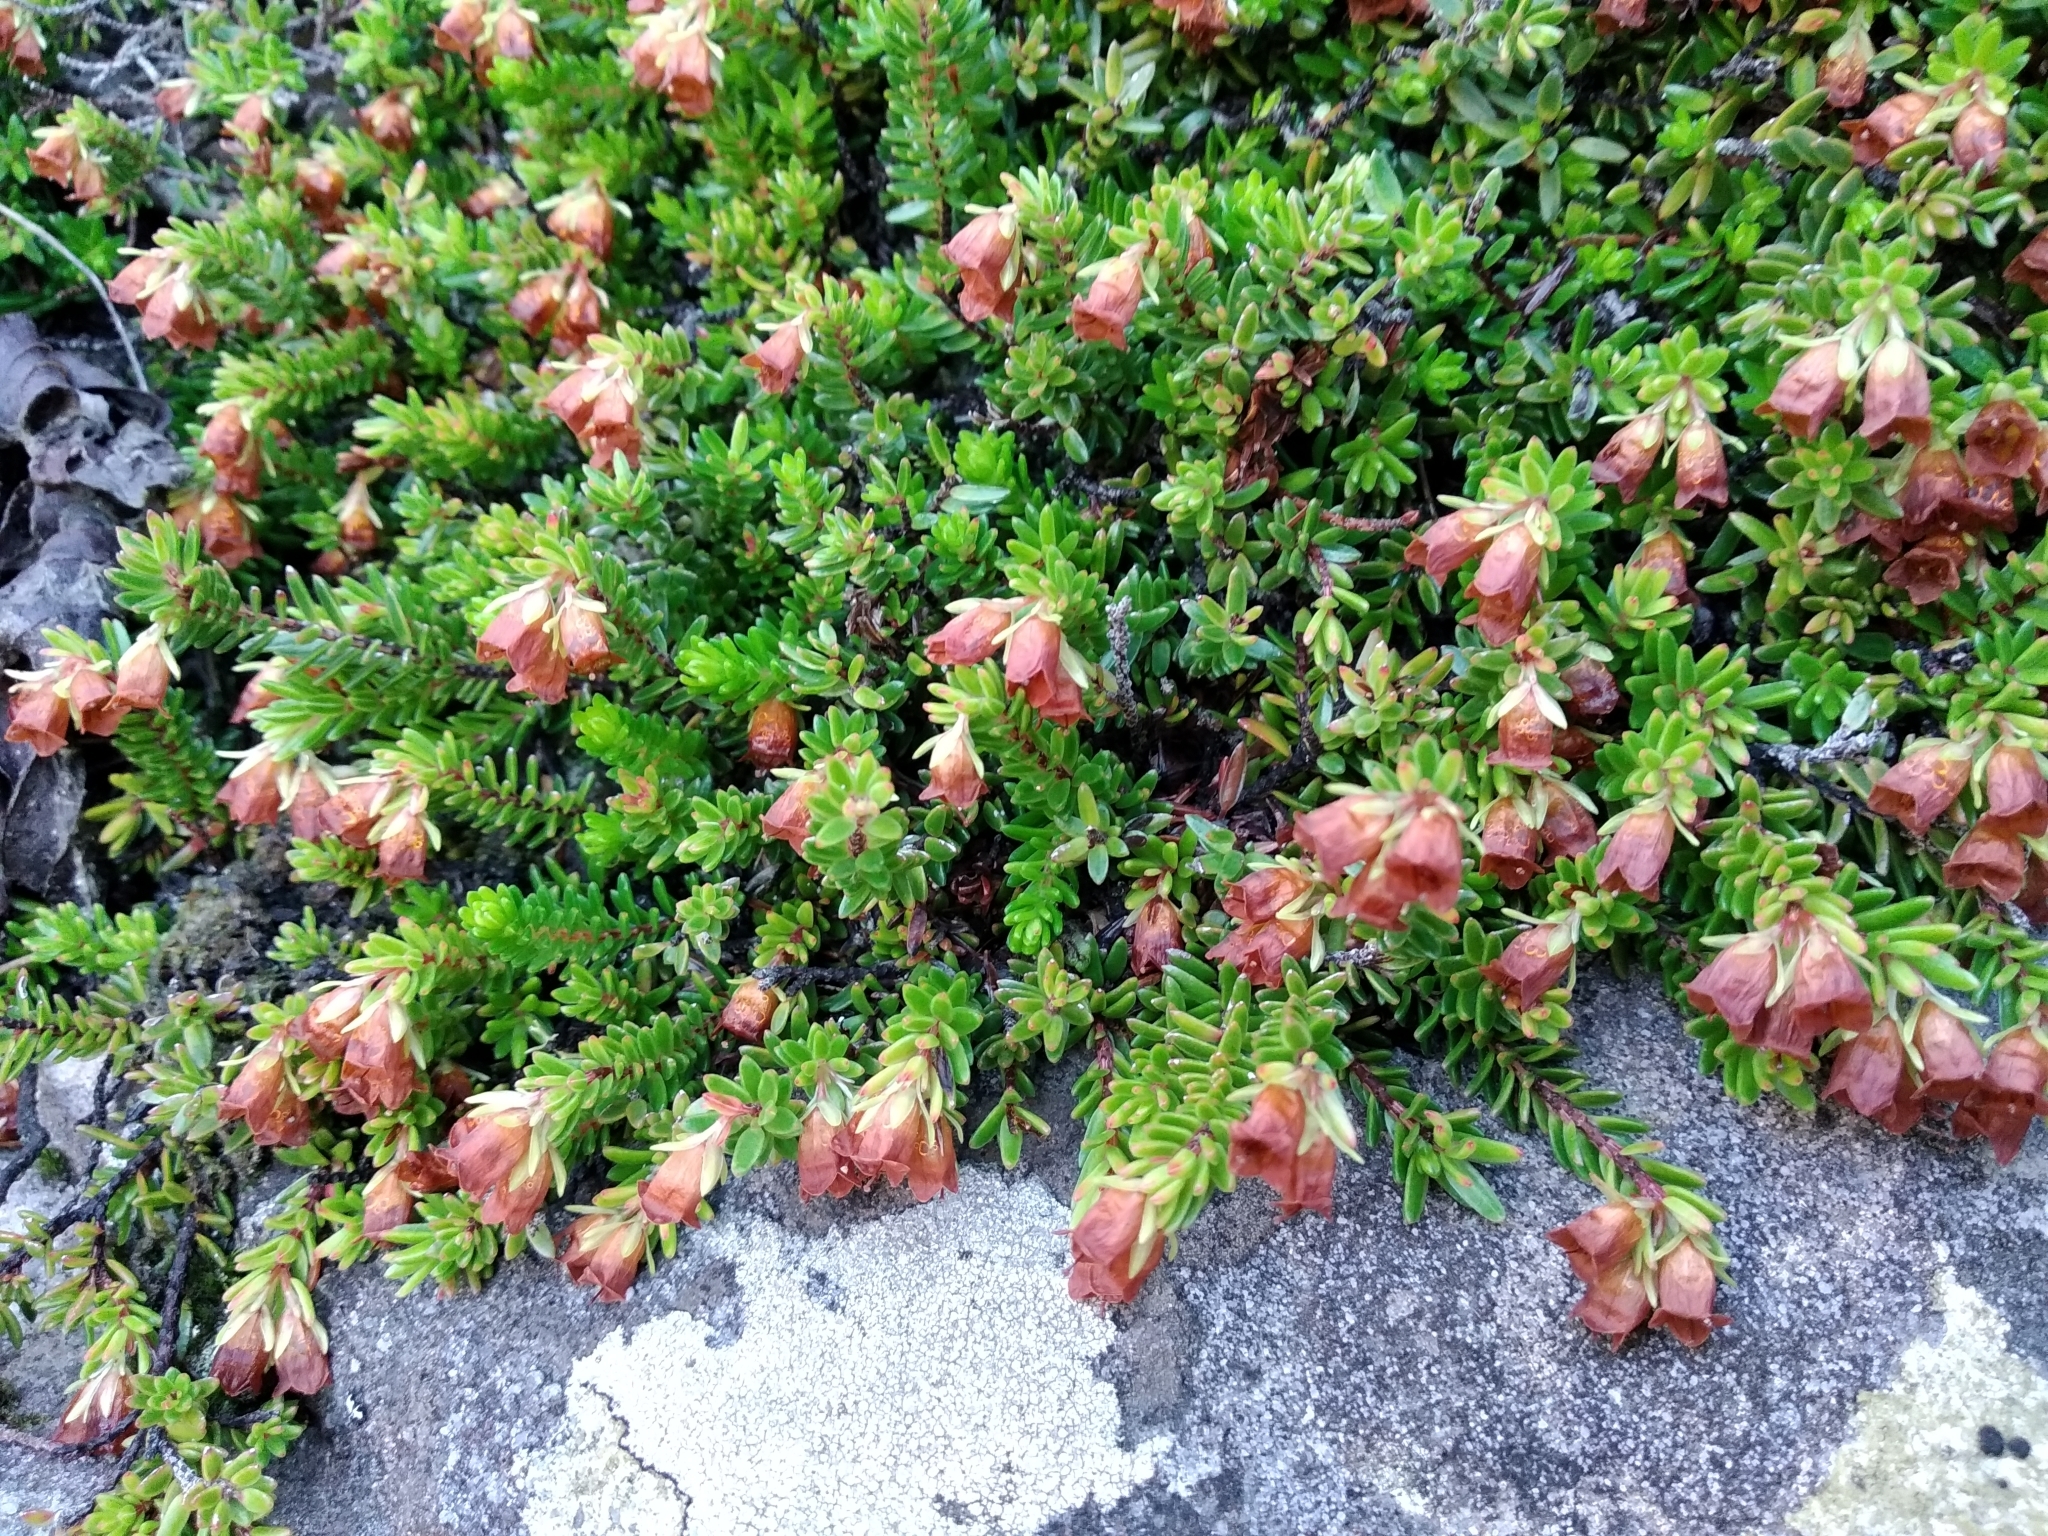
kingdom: Plantae
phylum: Tracheophyta
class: Magnoliopsida
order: Ericales
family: Ericaceae
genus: Erica
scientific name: Erica depressa
